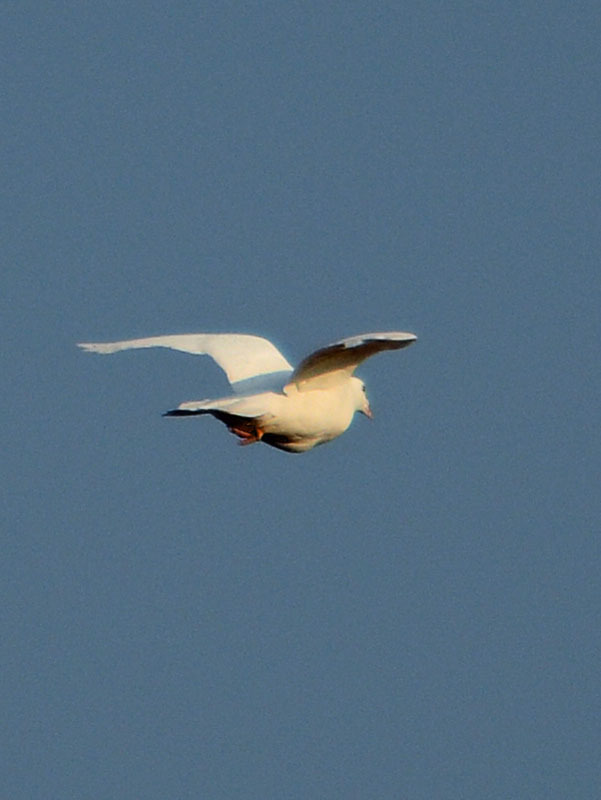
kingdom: Animalia
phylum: Chordata
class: Aves
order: Columbiformes
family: Columbidae
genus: Columba
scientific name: Columba livia
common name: Rock pigeon
